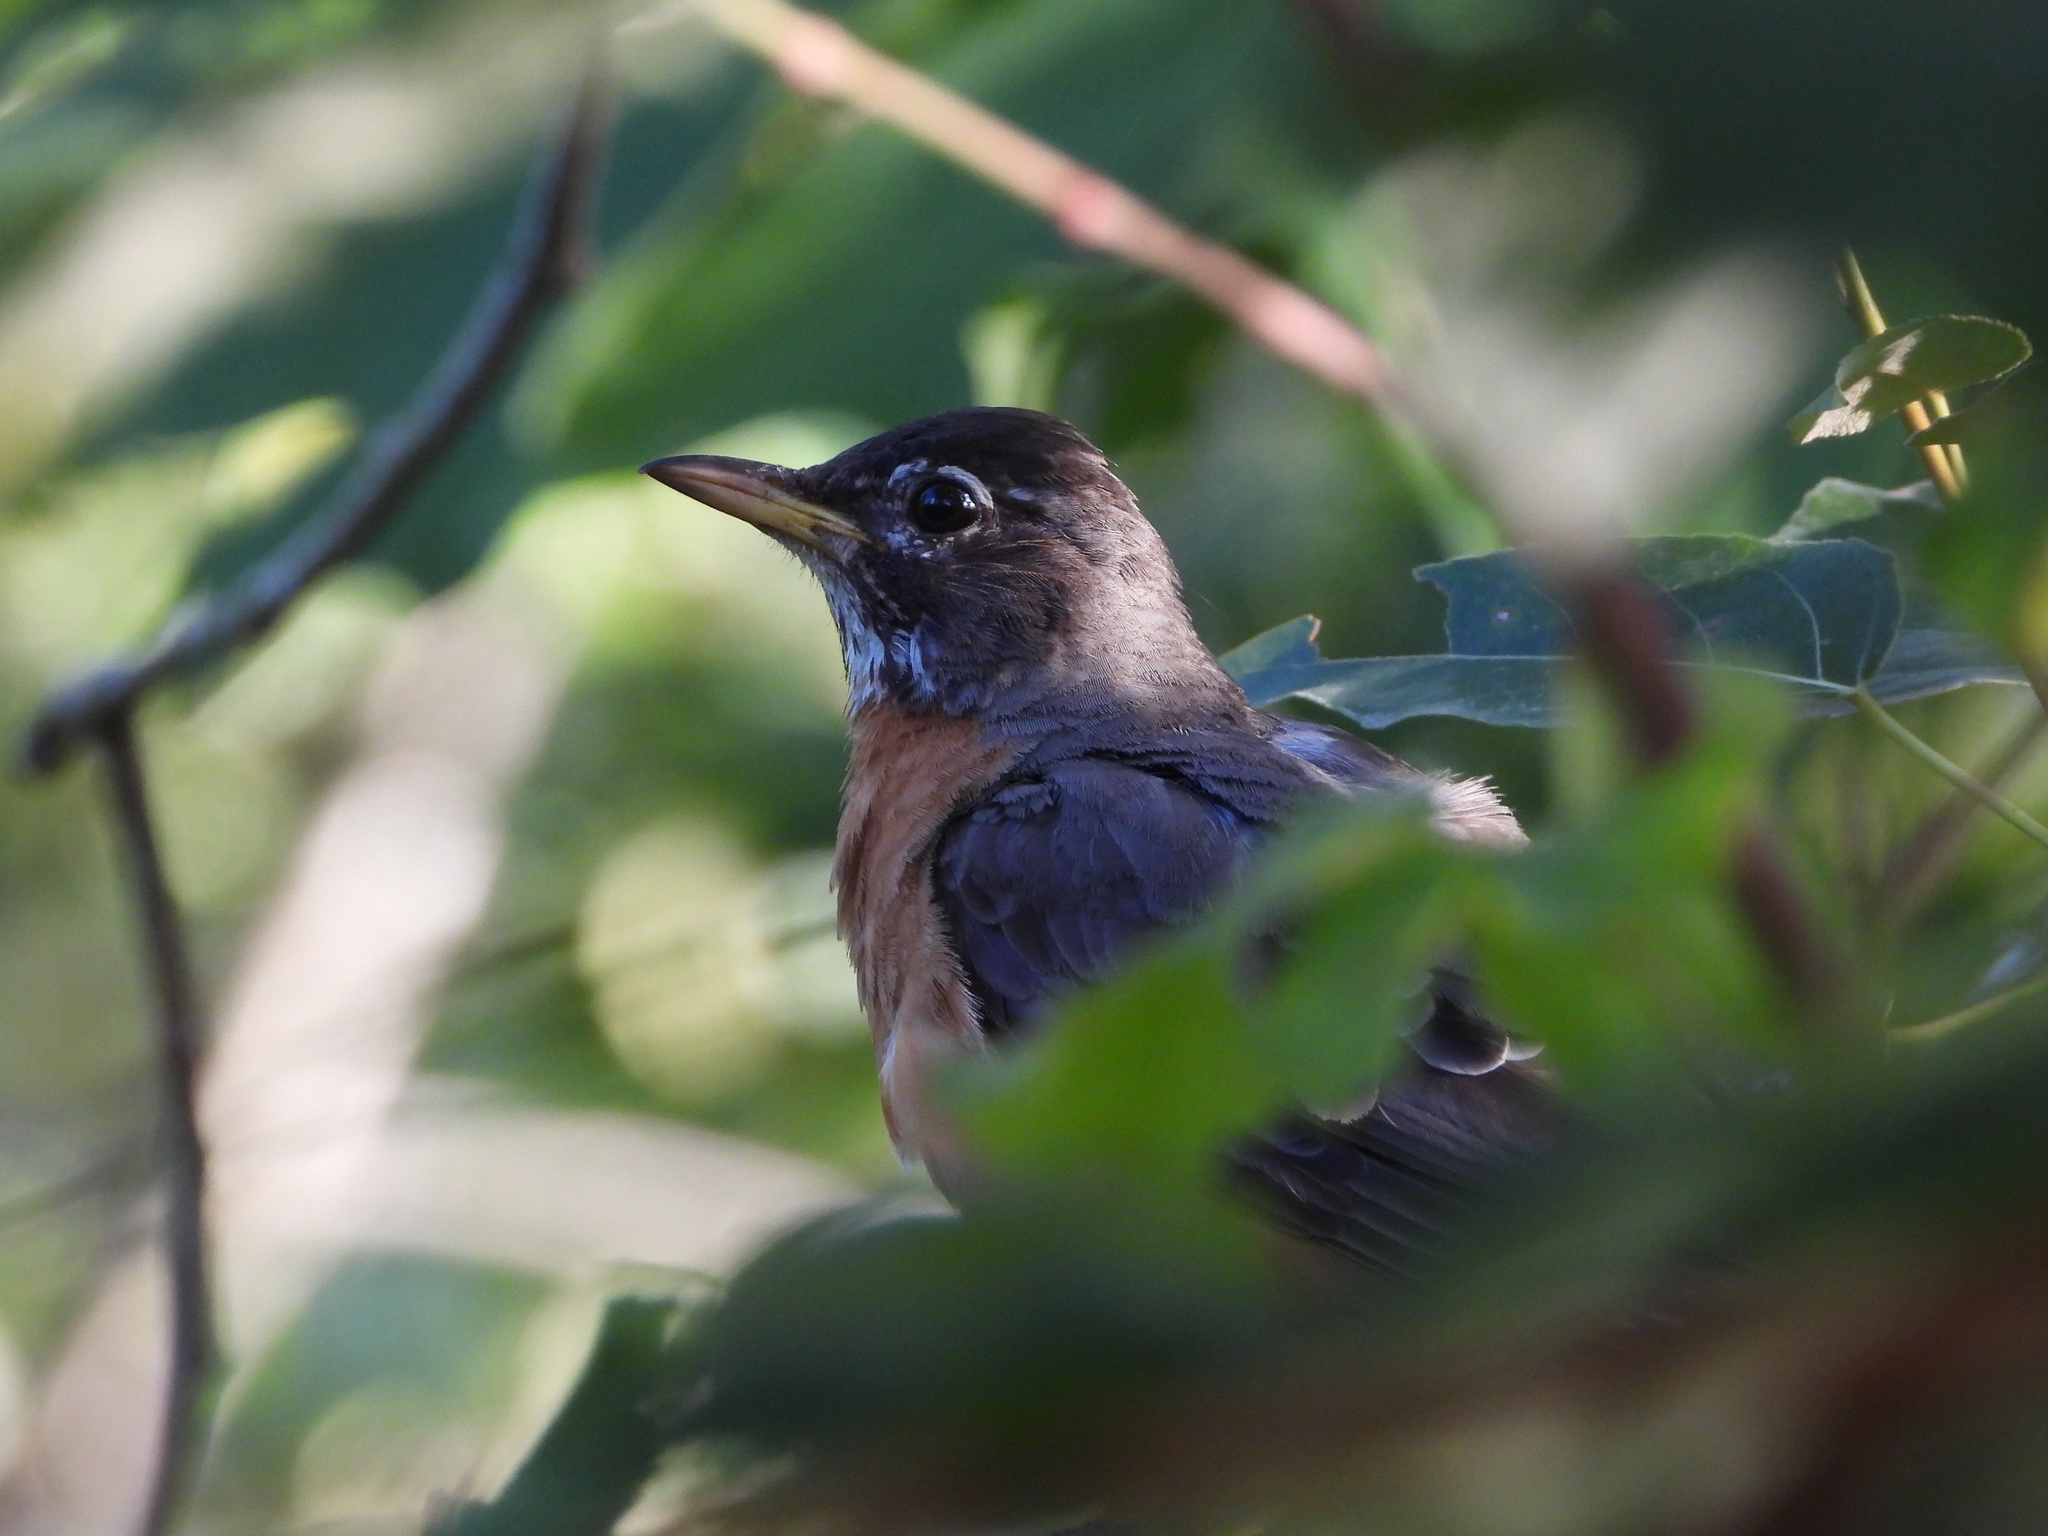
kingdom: Animalia
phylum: Chordata
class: Aves
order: Passeriformes
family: Turdidae
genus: Turdus
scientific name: Turdus migratorius
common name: American robin
